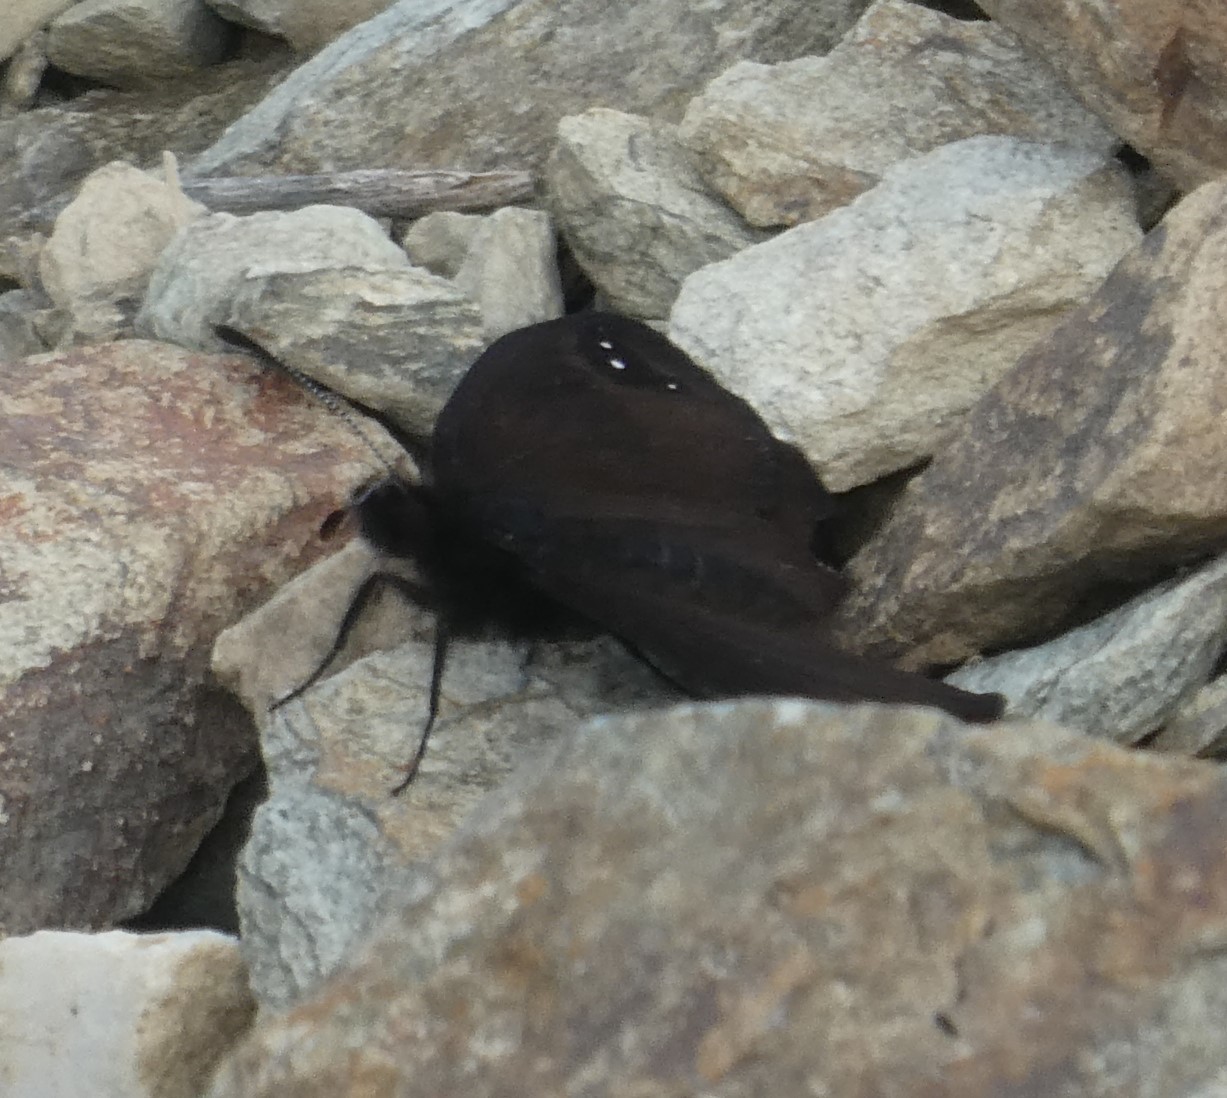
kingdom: Animalia
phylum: Arthropoda
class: Insecta
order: Lepidoptera
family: Nymphalidae
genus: Erebia
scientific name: Erebia Percnodaimon merula
